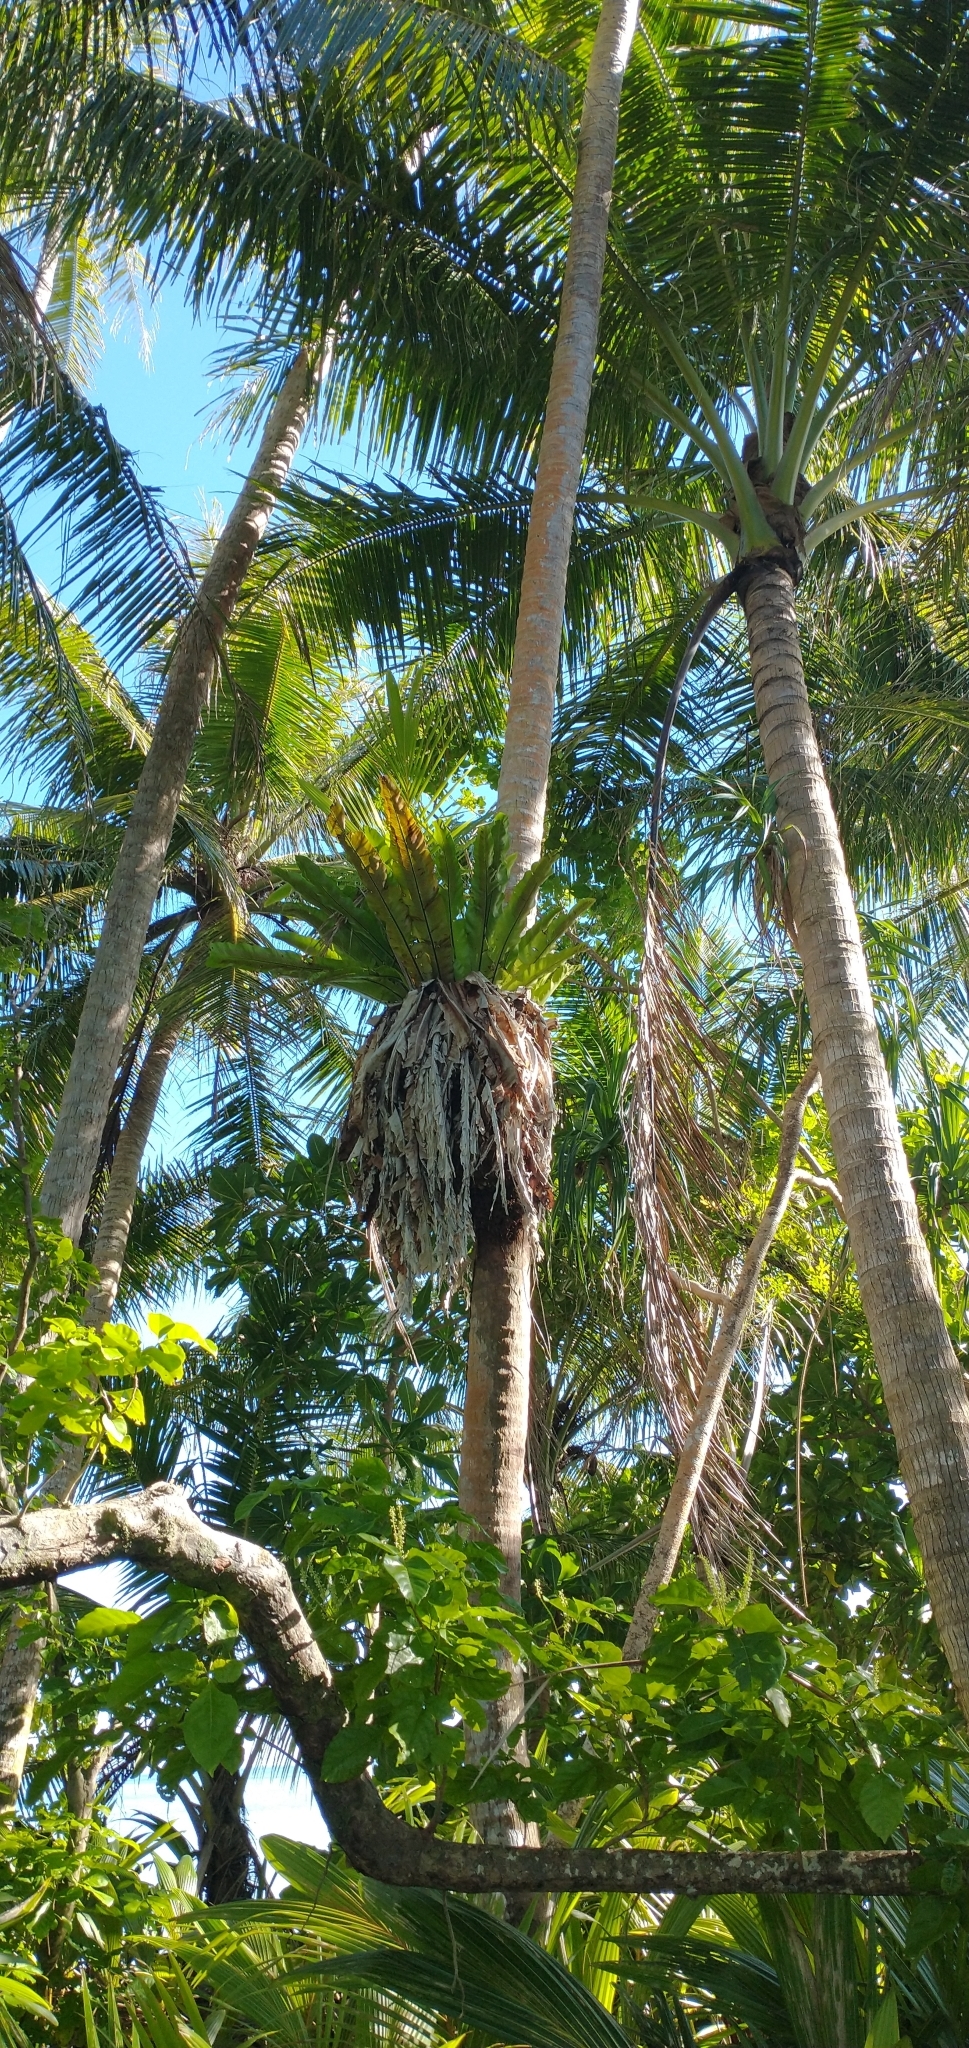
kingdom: Plantae
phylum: Tracheophyta
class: Liliopsida
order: Arecales
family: Arecaceae
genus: Cocos
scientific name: Cocos nucifera
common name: Coconut palm
